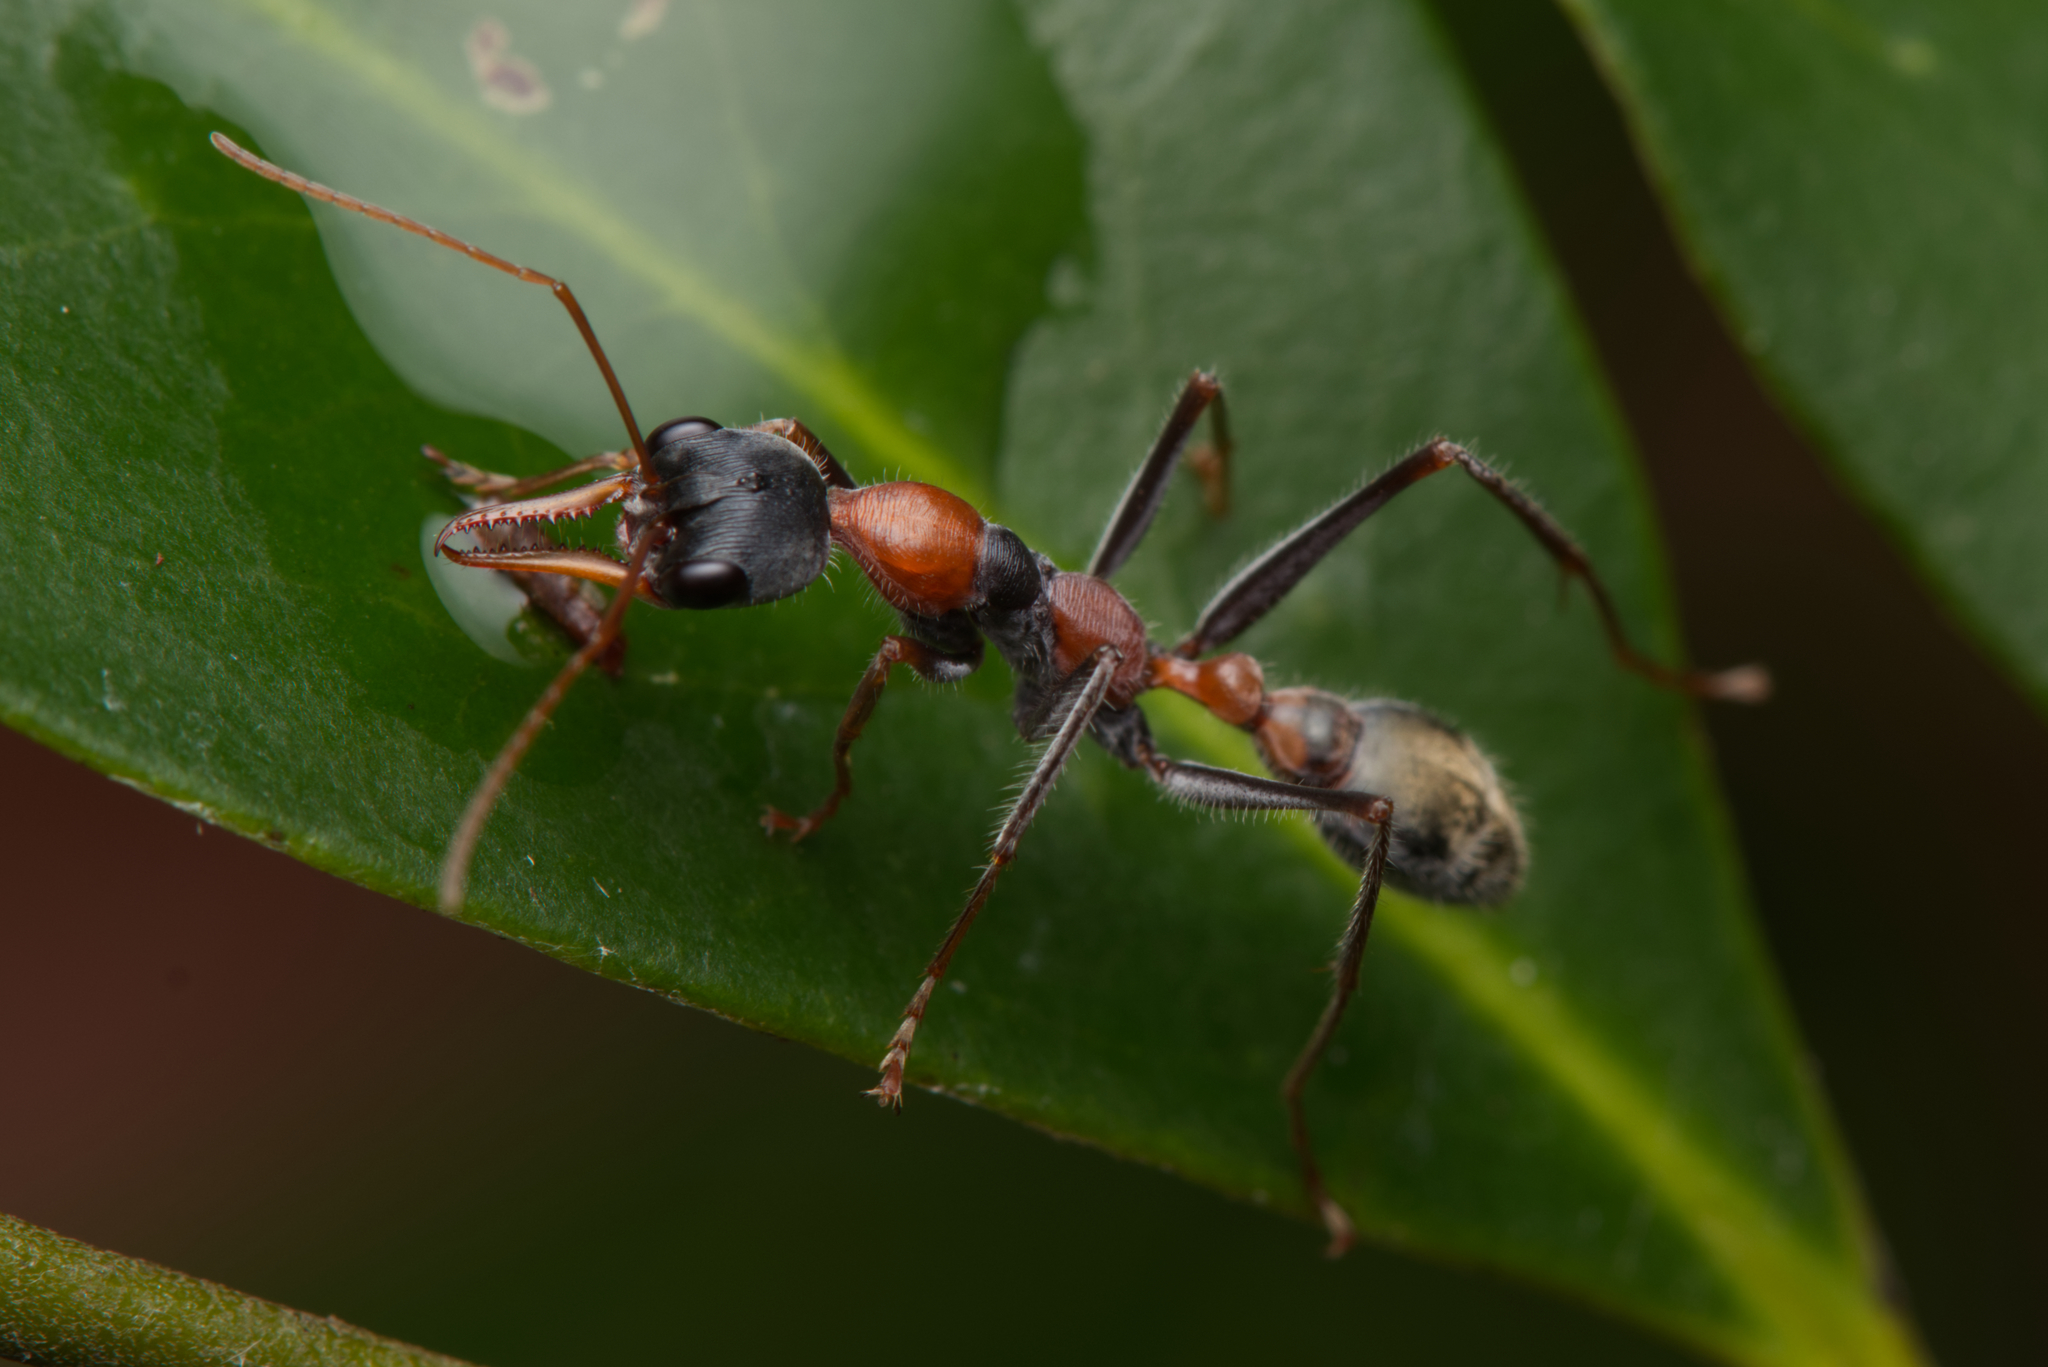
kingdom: Animalia
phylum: Arthropoda
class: Insecta
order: Hymenoptera
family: Formicidae
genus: Myrmecia
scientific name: Myrmecia nigrocincta
